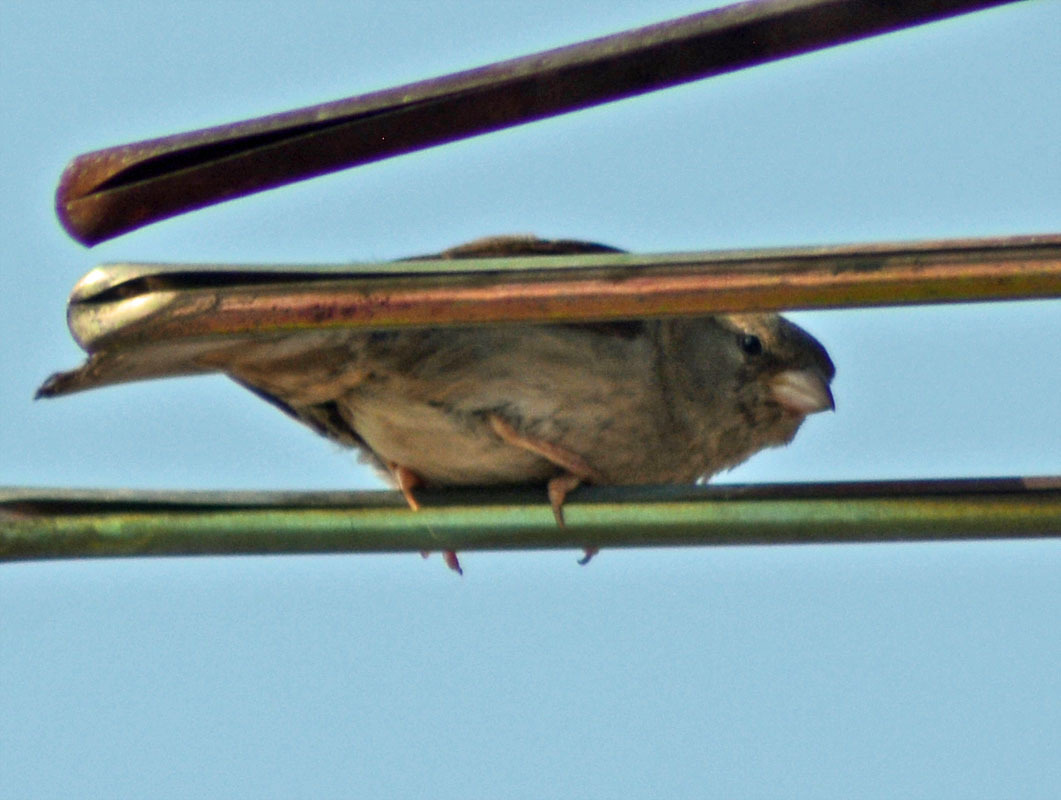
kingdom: Animalia
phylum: Chordata
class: Aves
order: Passeriformes
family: Passeridae
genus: Passer
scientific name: Passer domesticus
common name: House sparrow
